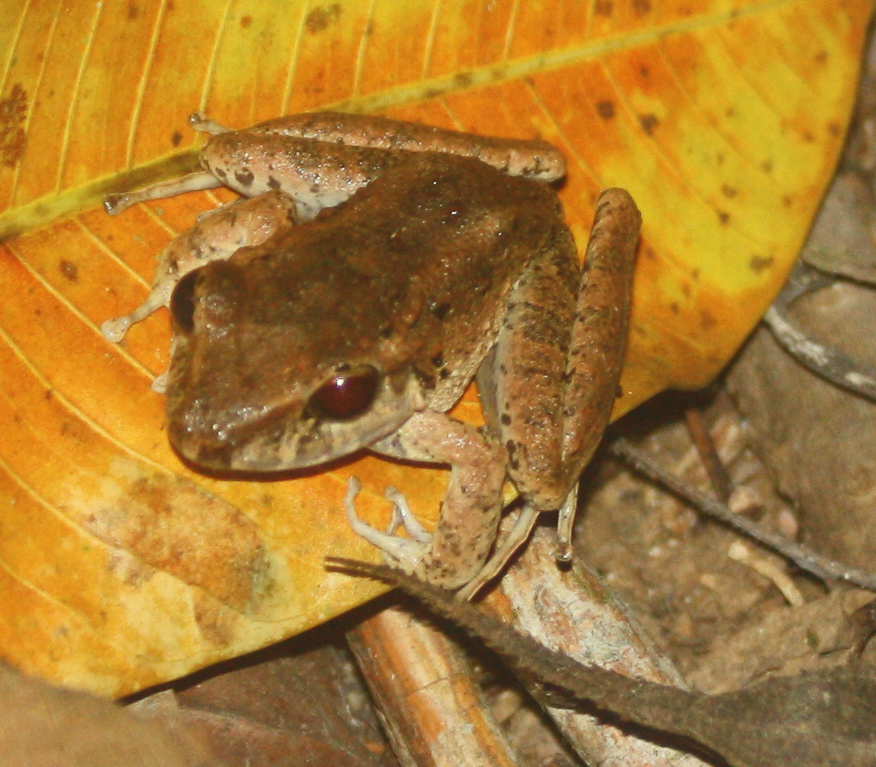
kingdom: Animalia
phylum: Chordata
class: Amphibia
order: Anura
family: Craugastoridae
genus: Craugastor
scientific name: Craugastor
